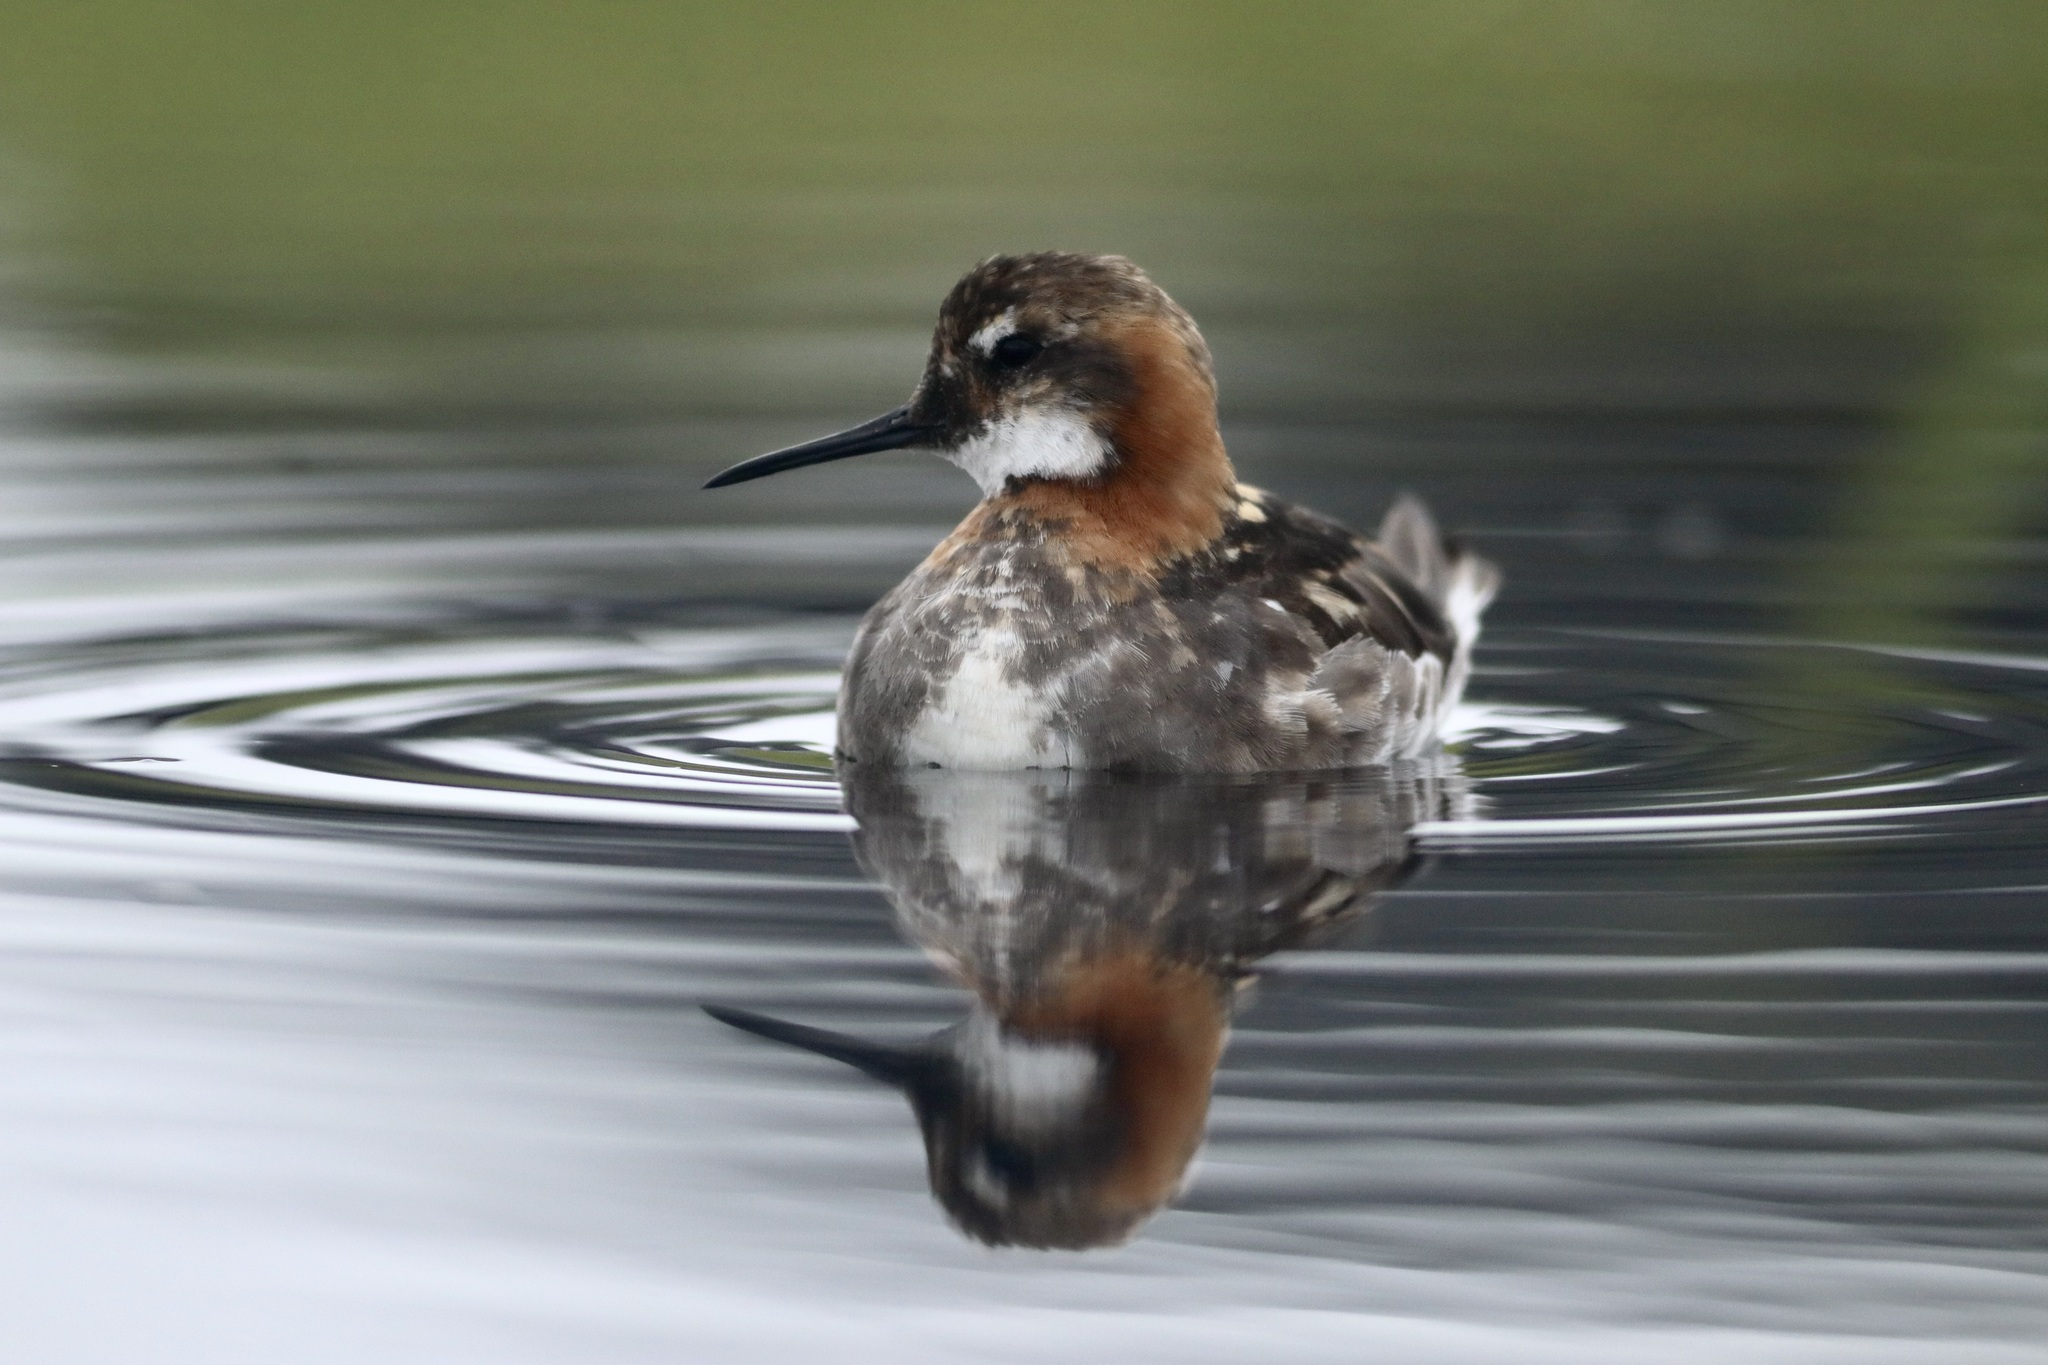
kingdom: Animalia
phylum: Chordata
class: Aves
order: Charadriiformes
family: Scolopacidae
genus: Phalaropus
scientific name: Phalaropus lobatus
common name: Red-necked phalarope
